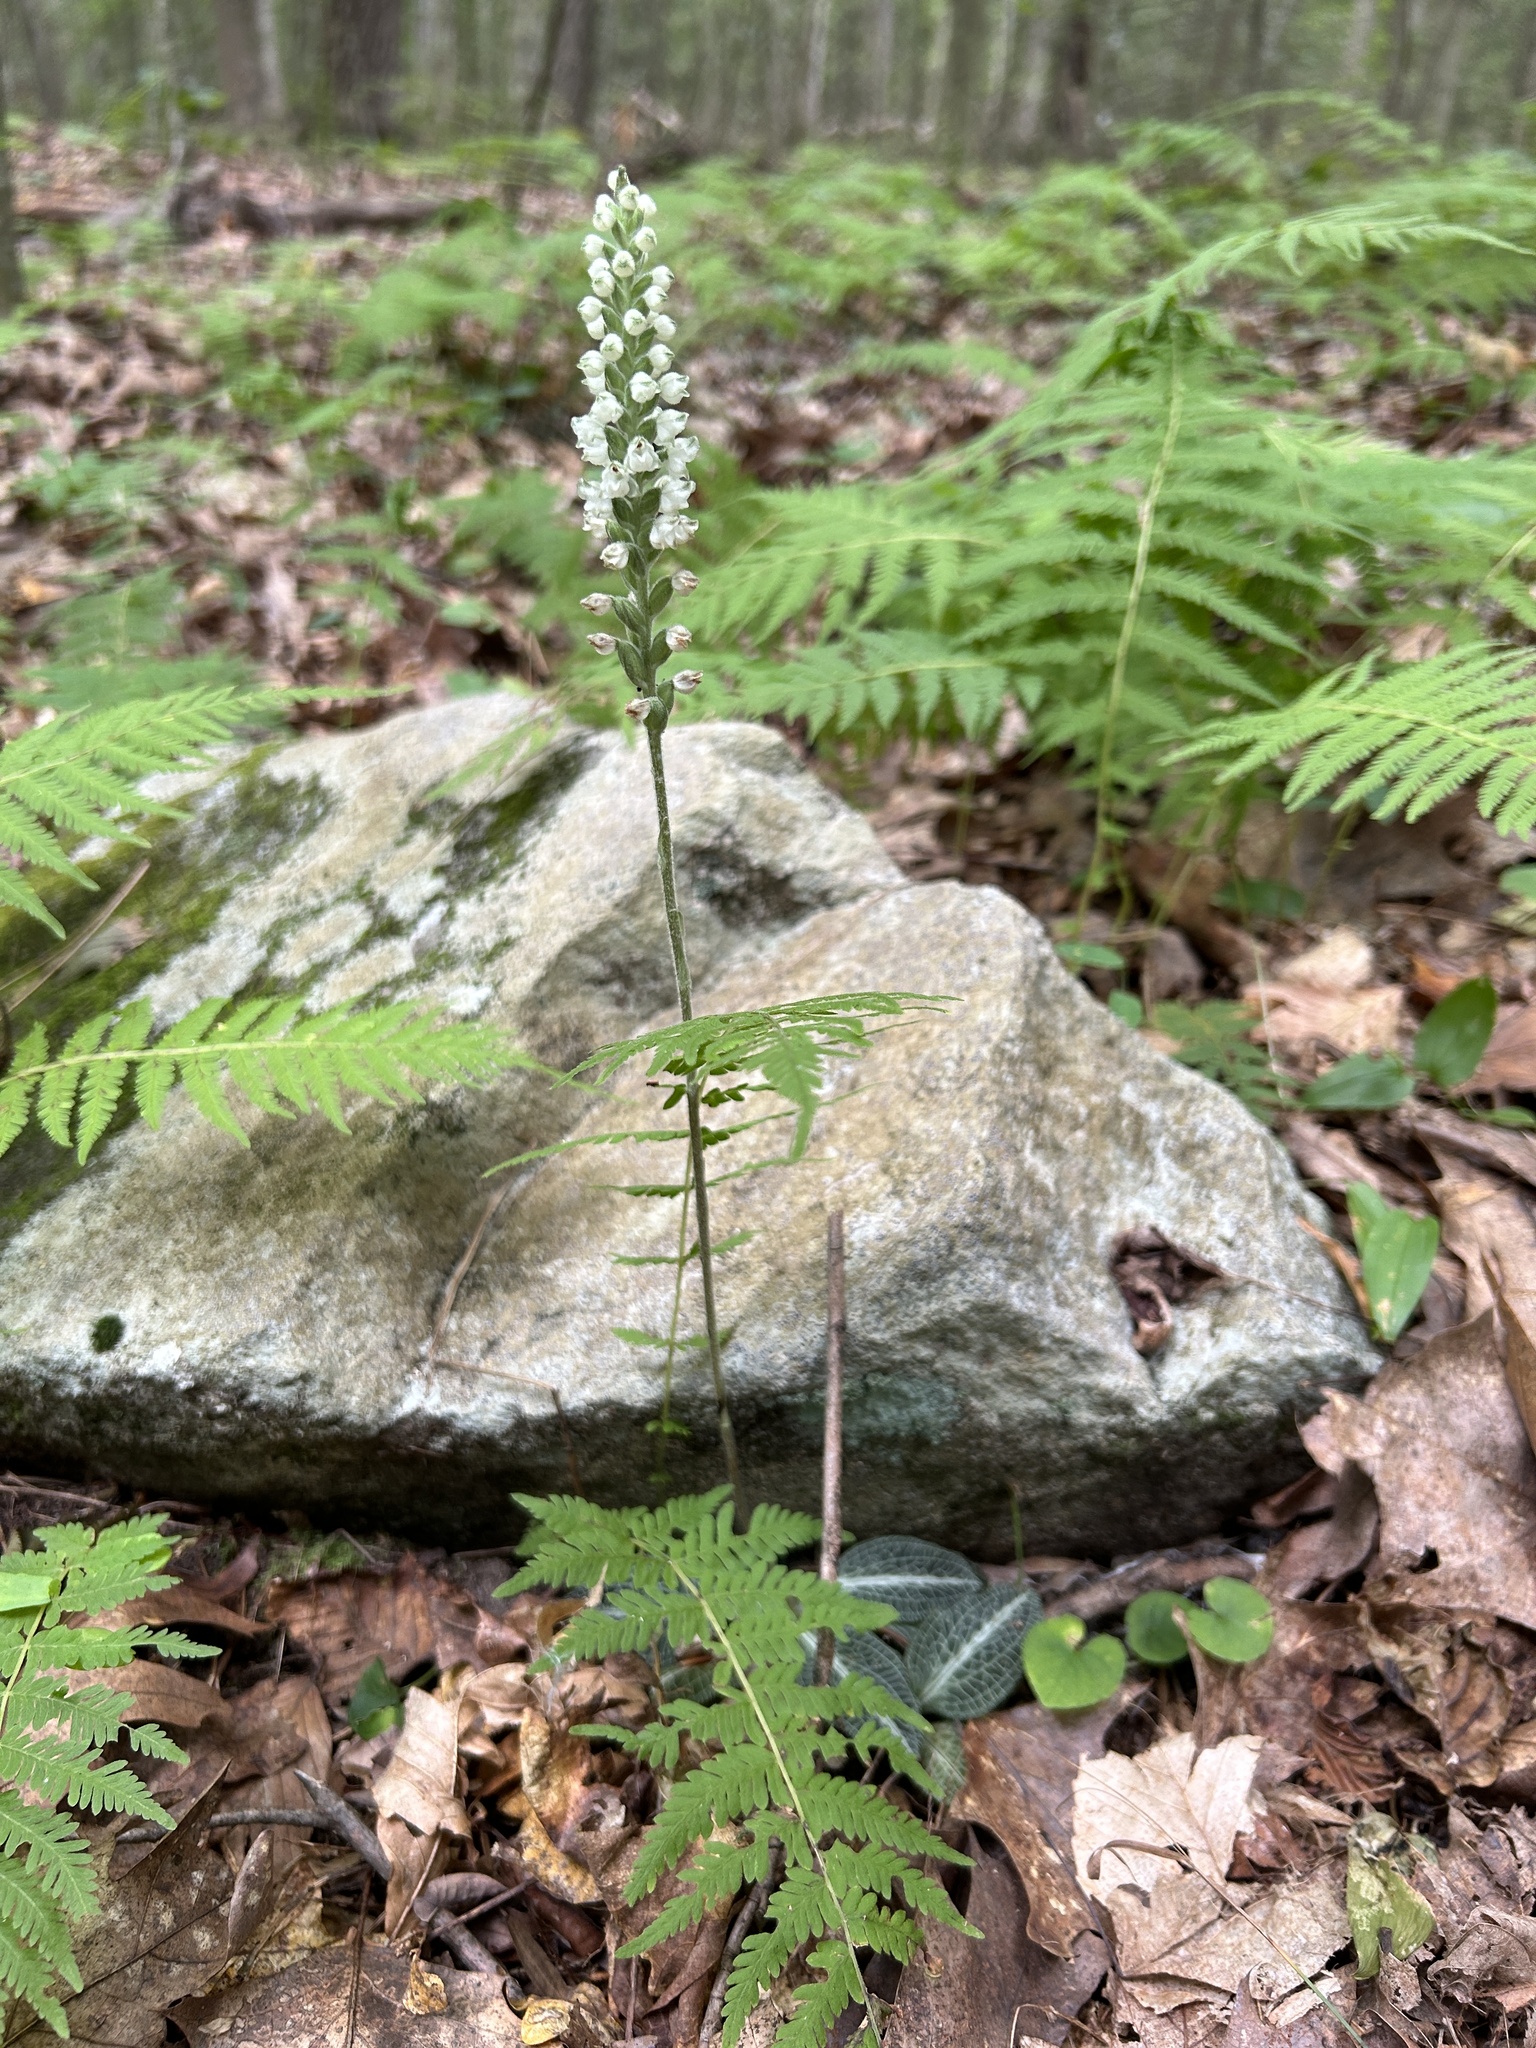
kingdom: Plantae
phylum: Tracheophyta
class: Liliopsida
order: Asparagales
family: Orchidaceae
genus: Goodyera
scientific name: Goodyera pubescens
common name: Downy rattlesnake-plantain
